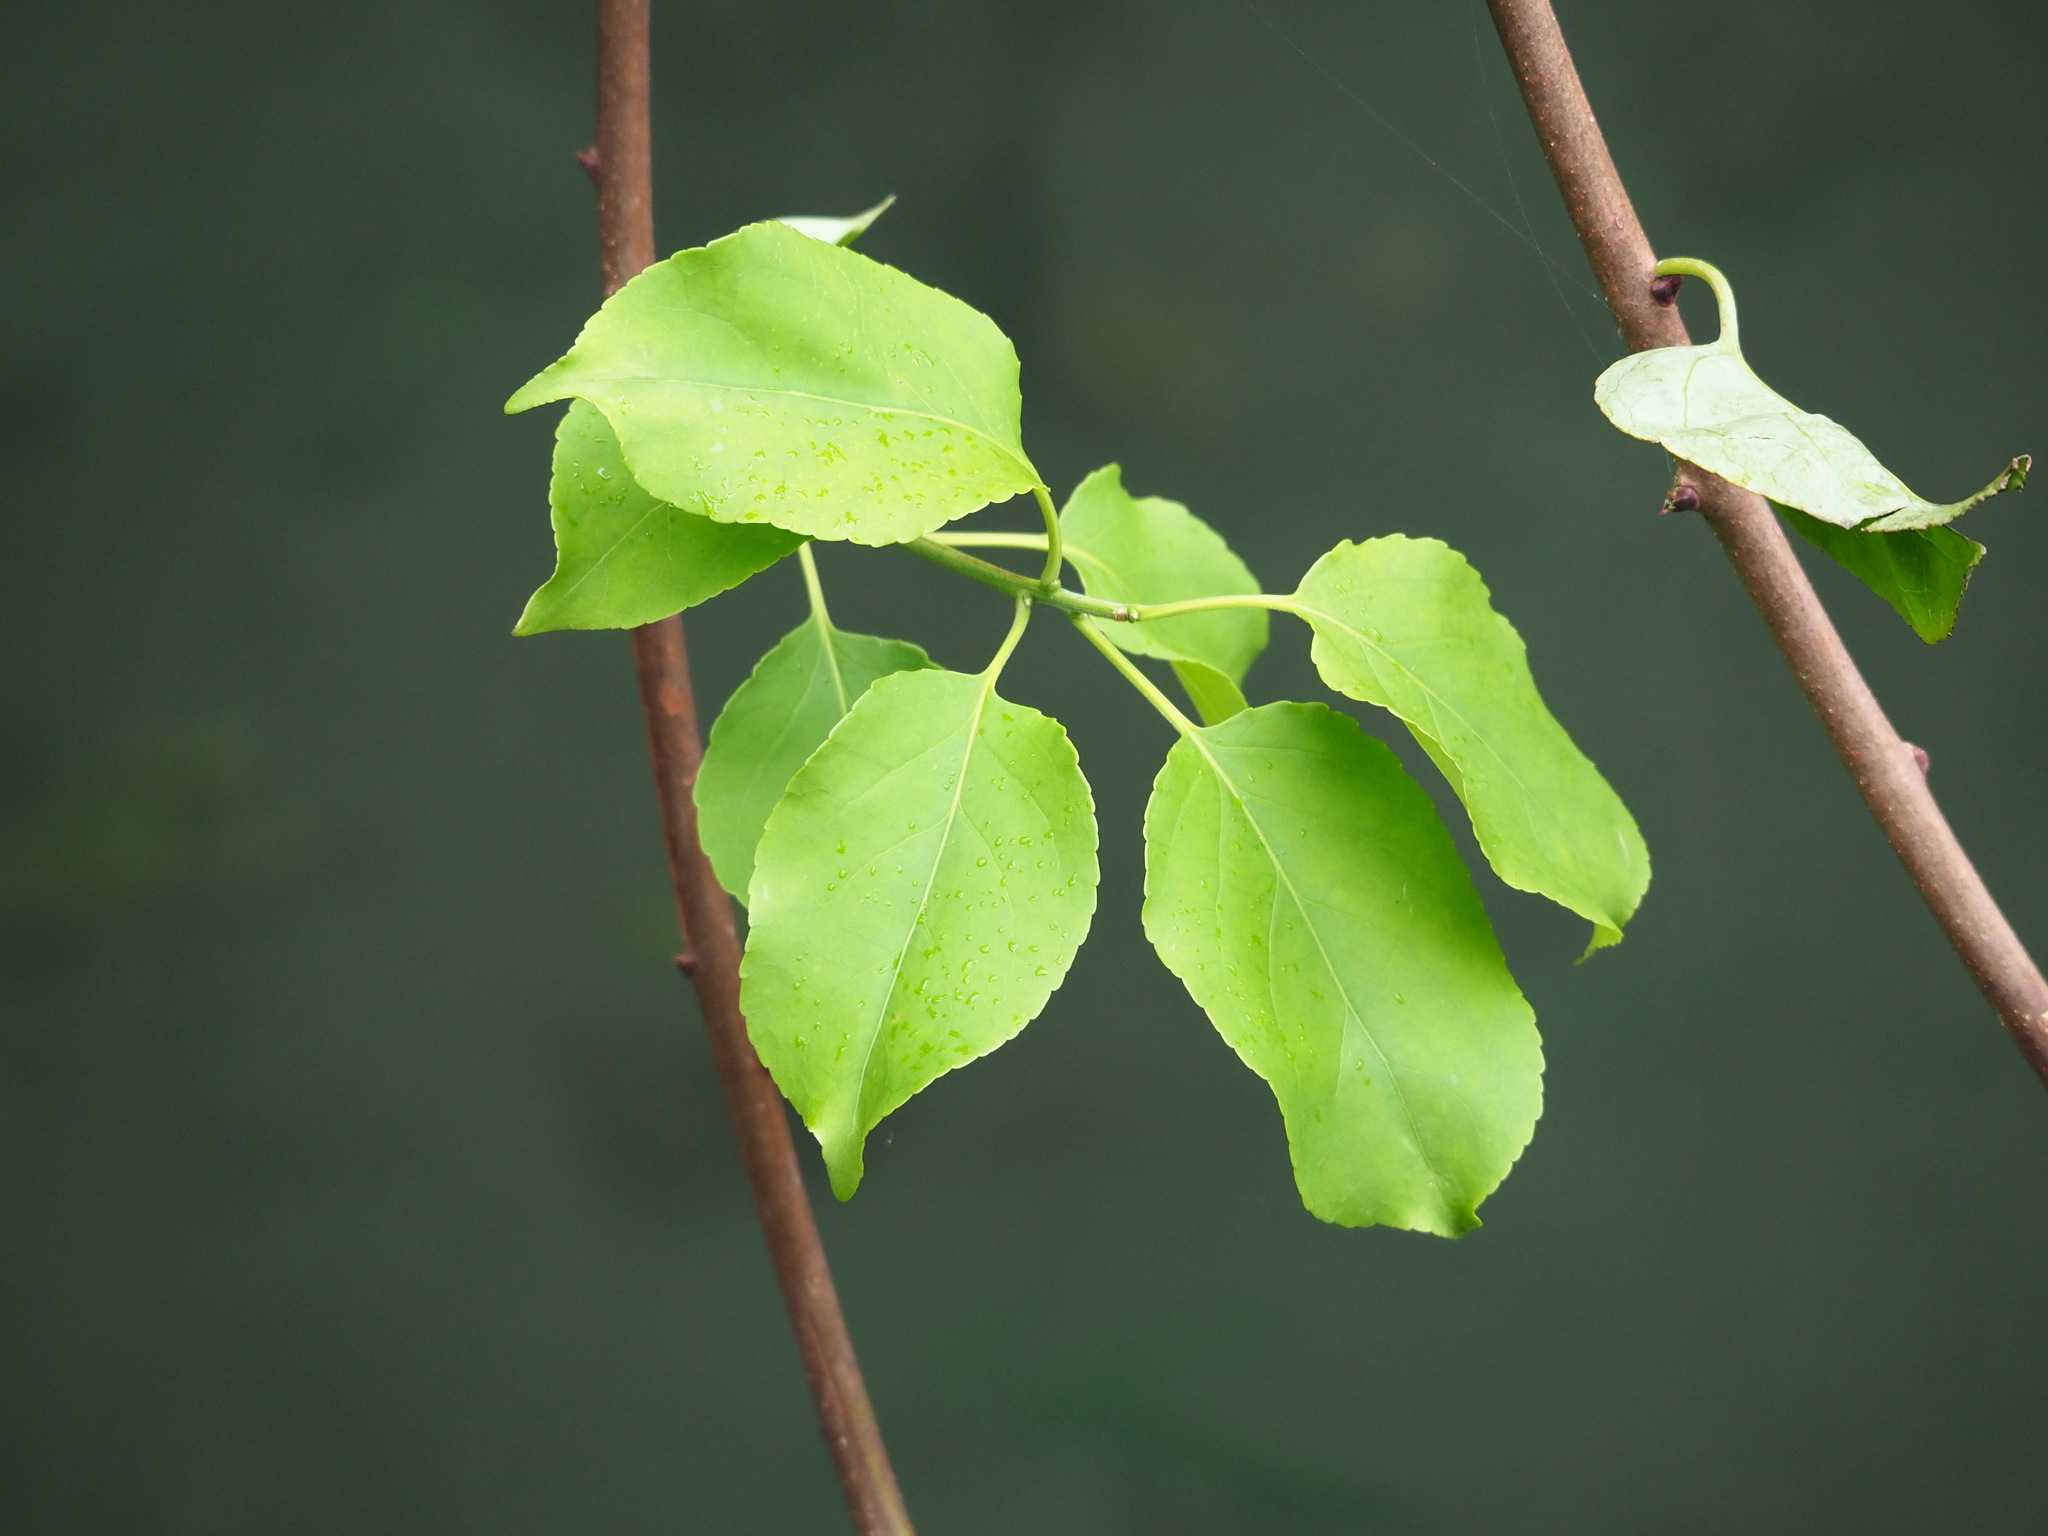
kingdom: Plantae
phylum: Tracheophyta
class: Magnoliopsida
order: Celastrales
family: Celastraceae
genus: Celastrus
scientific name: Celastrus kusanoi
